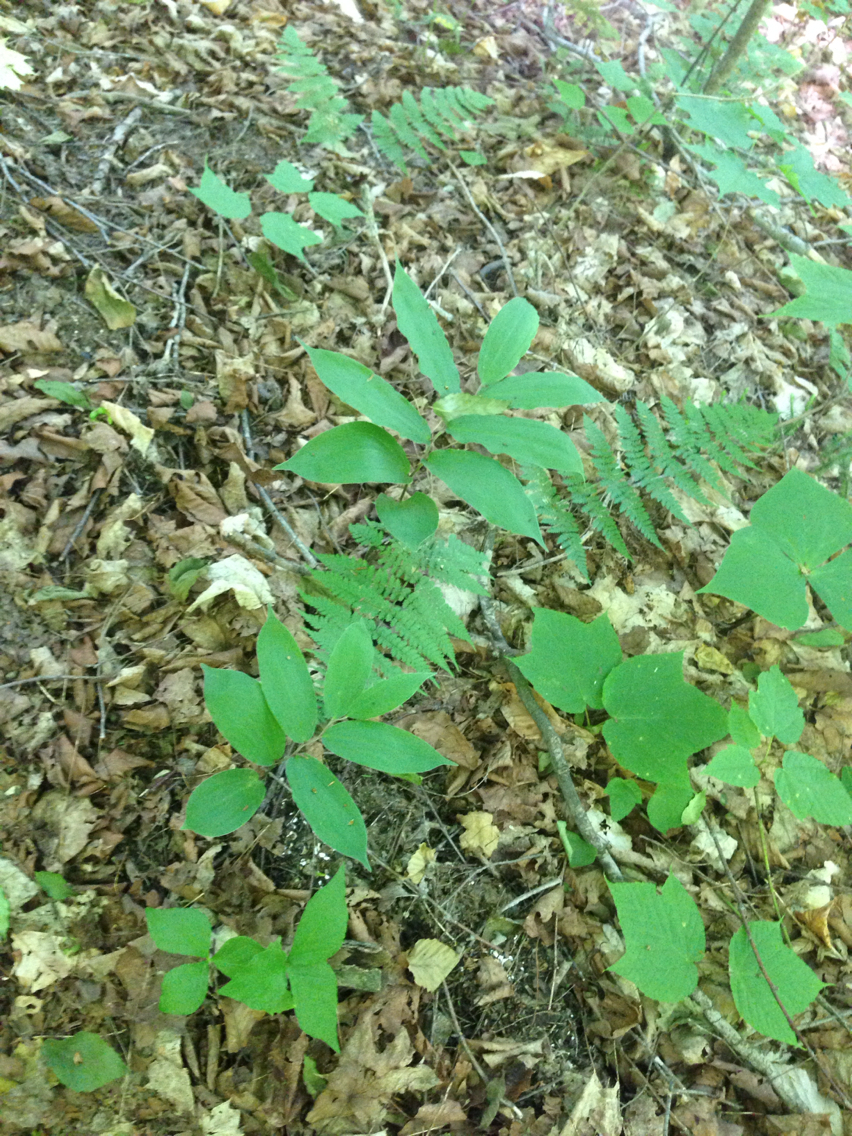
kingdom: Plantae
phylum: Tracheophyta
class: Liliopsida
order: Asparagales
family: Asparagaceae
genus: Maianthemum
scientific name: Maianthemum racemosum
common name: False spikenard
